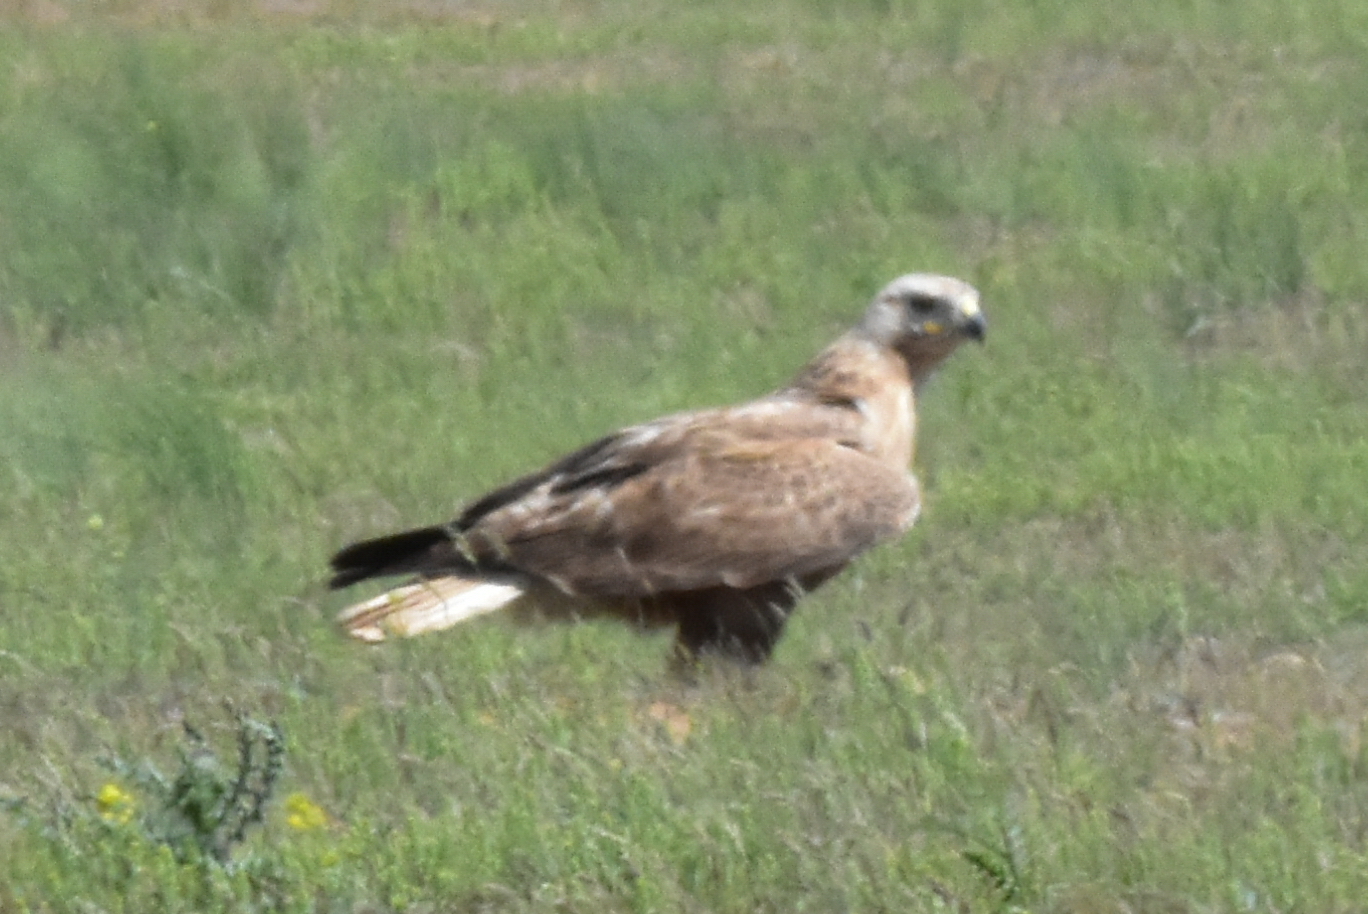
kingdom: Animalia
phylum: Chordata
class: Aves
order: Accipitriformes
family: Accipitridae
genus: Buteo
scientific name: Buteo rufinus
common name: Long-legged buzzard
